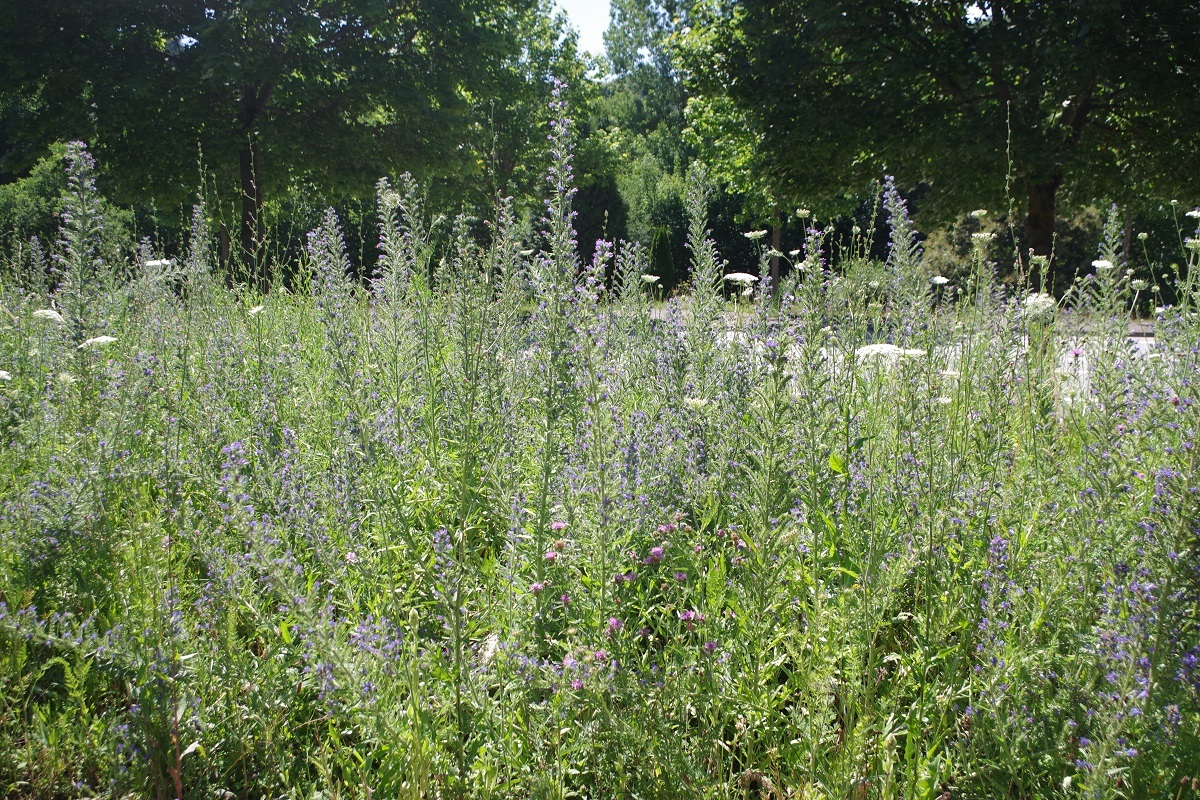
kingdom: Plantae
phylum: Tracheophyta
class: Magnoliopsida
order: Boraginales
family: Boraginaceae
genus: Echium
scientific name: Echium vulgare
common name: Common viper's bugloss
